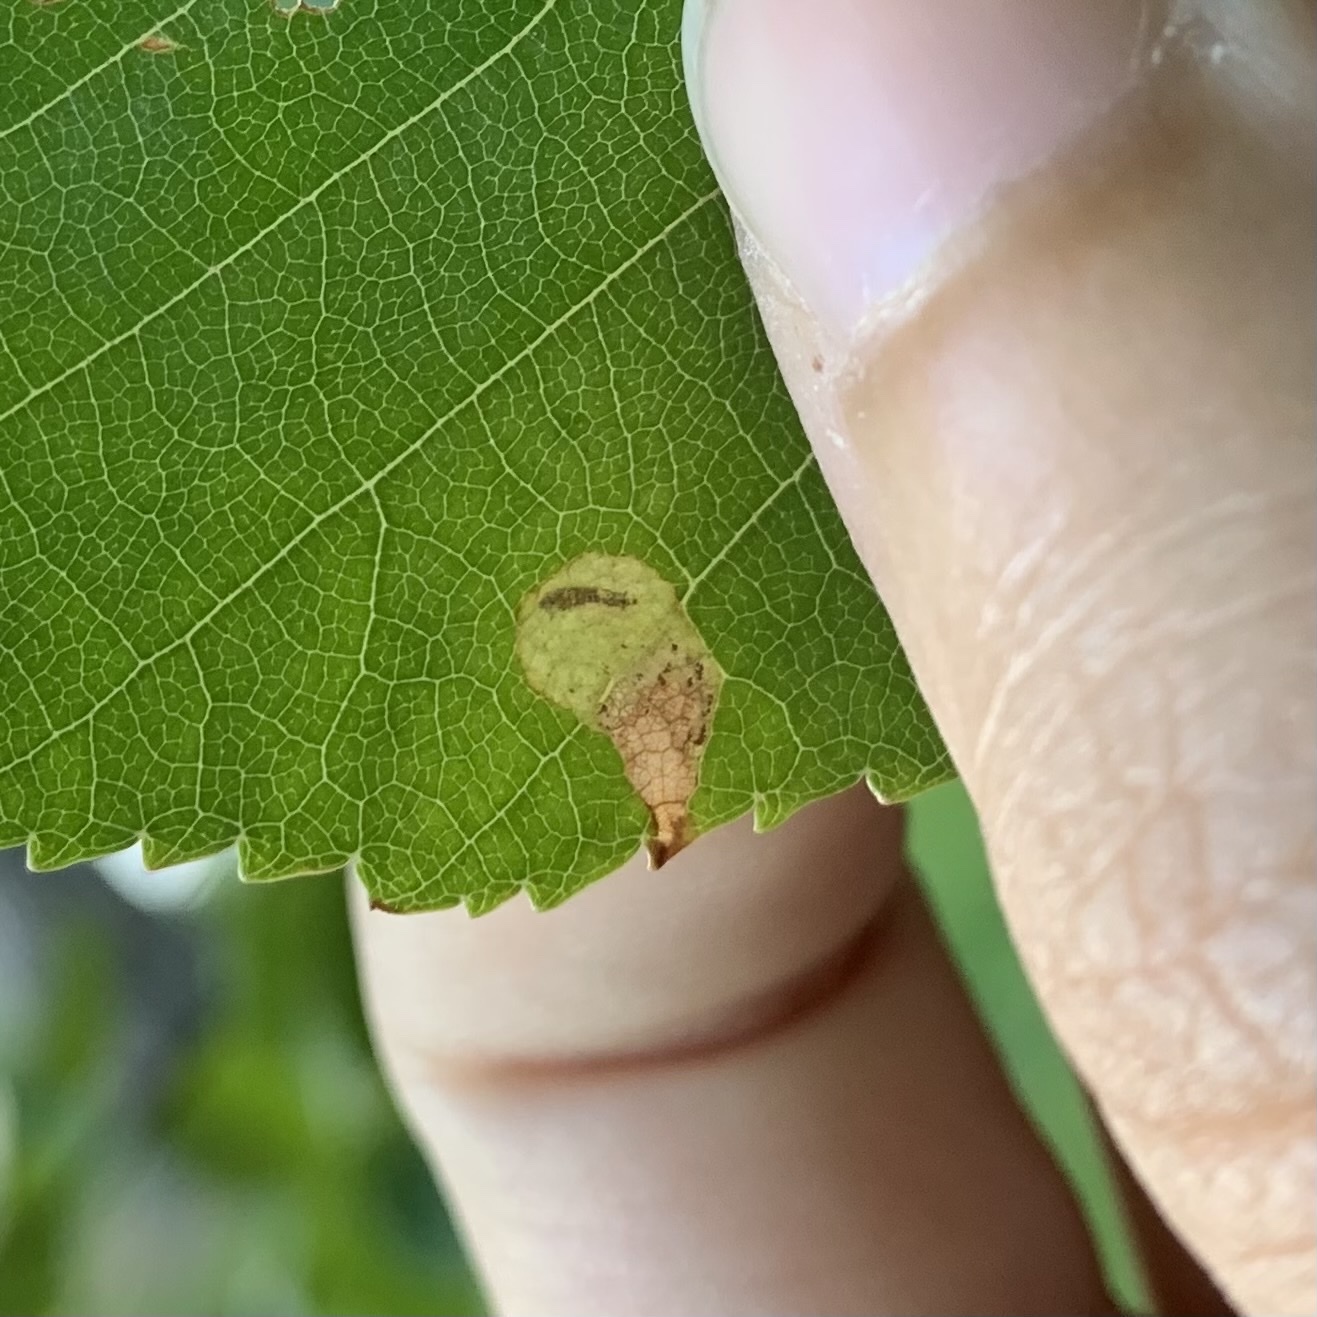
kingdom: Animalia
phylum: Arthropoda
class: Insecta
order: Hymenoptera
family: Tenthredinidae
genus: Fenusella
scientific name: Fenusella nana
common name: Early birch leaf edgeminer
